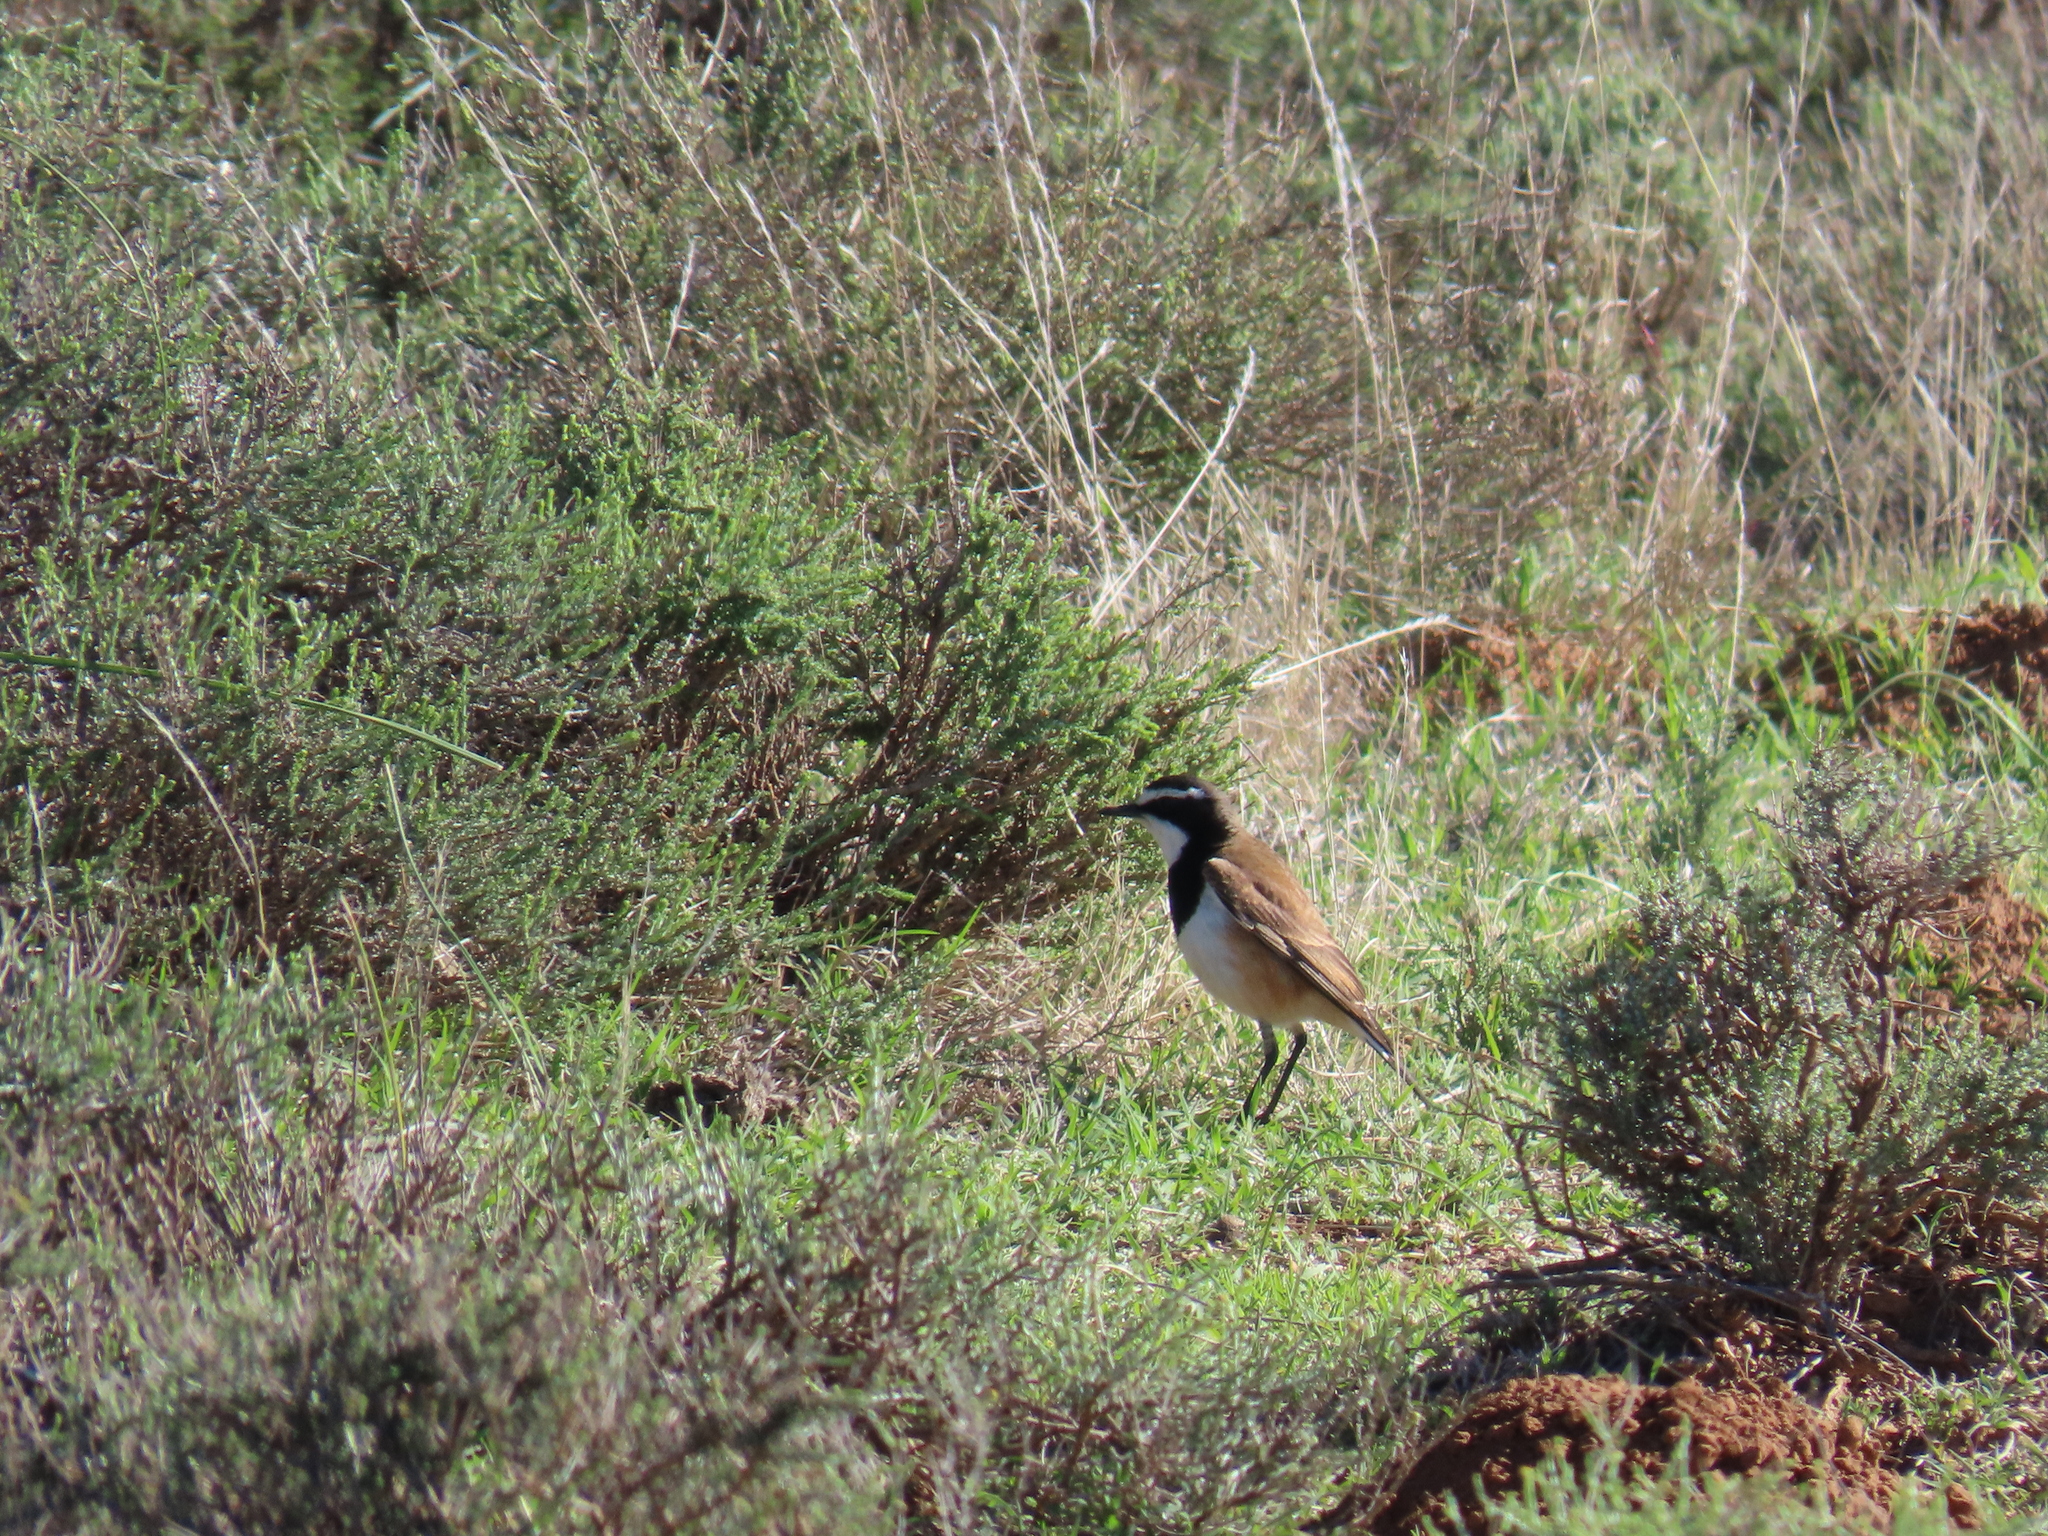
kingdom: Animalia
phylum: Chordata
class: Aves
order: Passeriformes
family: Muscicapidae
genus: Oenanthe
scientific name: Oenanthe pileata
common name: Capped wheatear
